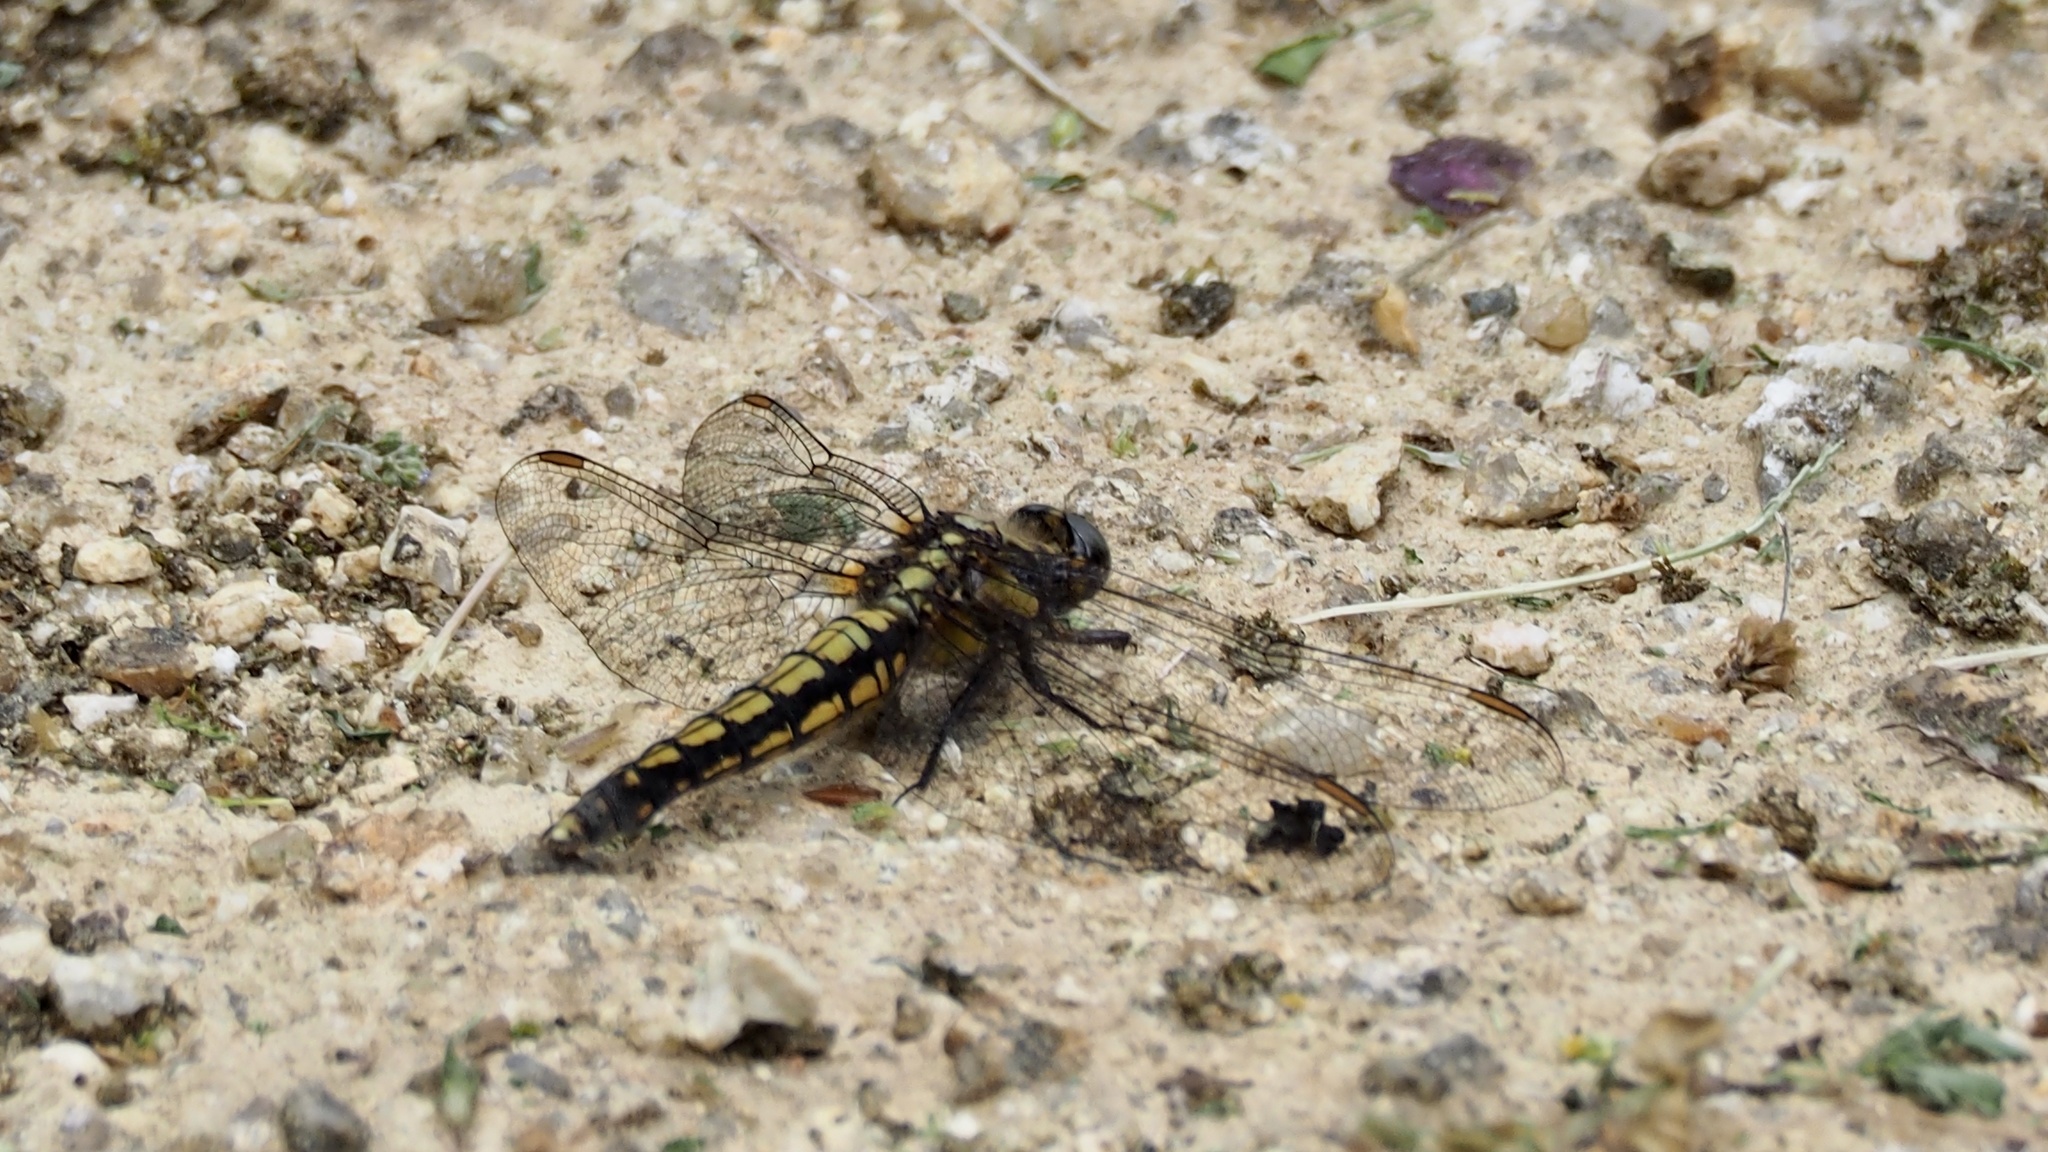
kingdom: Animalia
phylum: Arthropoda
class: Insecta
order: Odonata
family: Libellulidae
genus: Orthetrum
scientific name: Orthetrum japonicum
